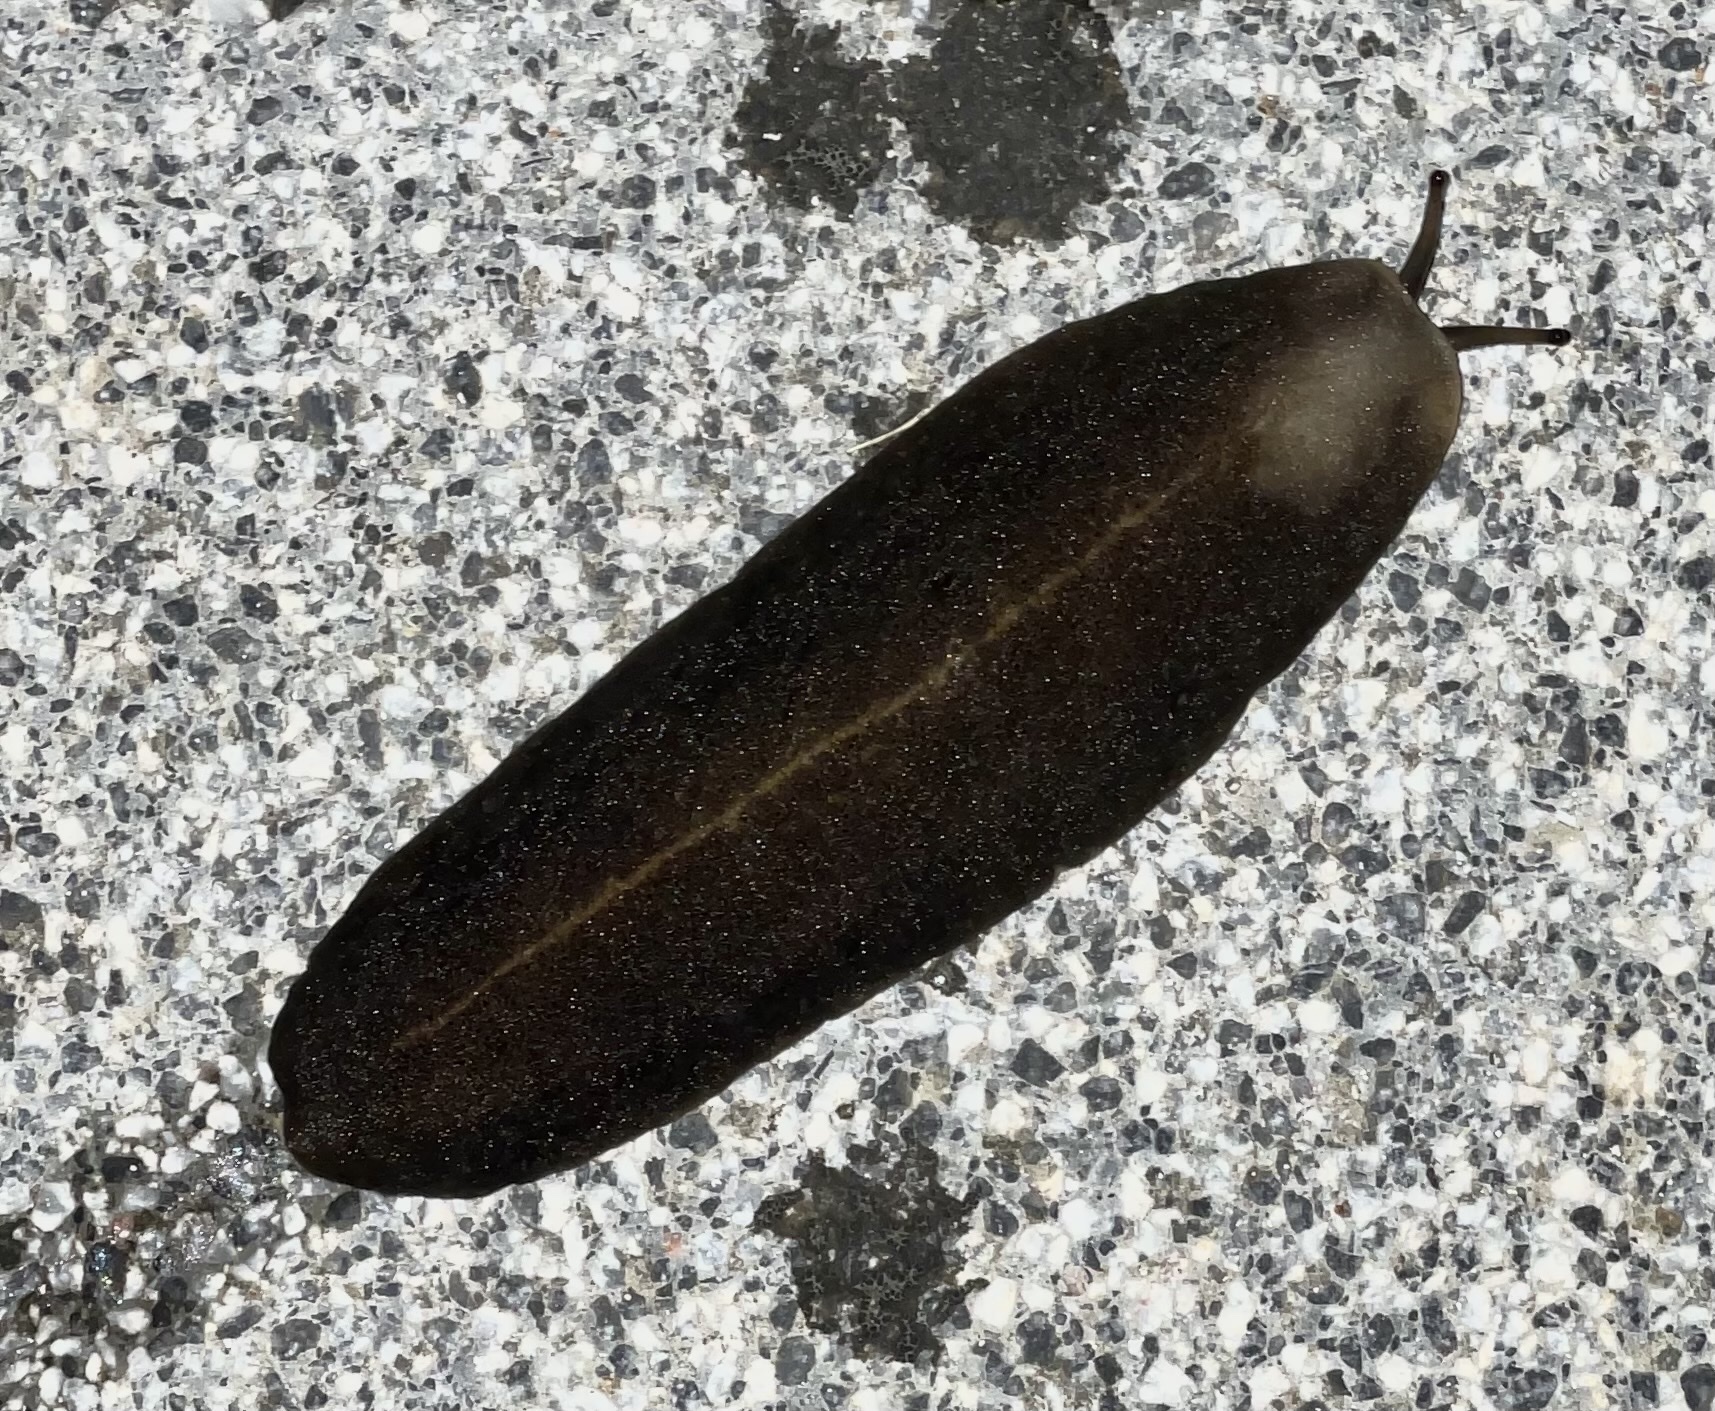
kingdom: Animalia
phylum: Mollusca
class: Gastropoda
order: Systellommatophora
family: Veronicellidae
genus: Laevicaulis
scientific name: Laevicaulis alte
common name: Tropical leatherleaf
